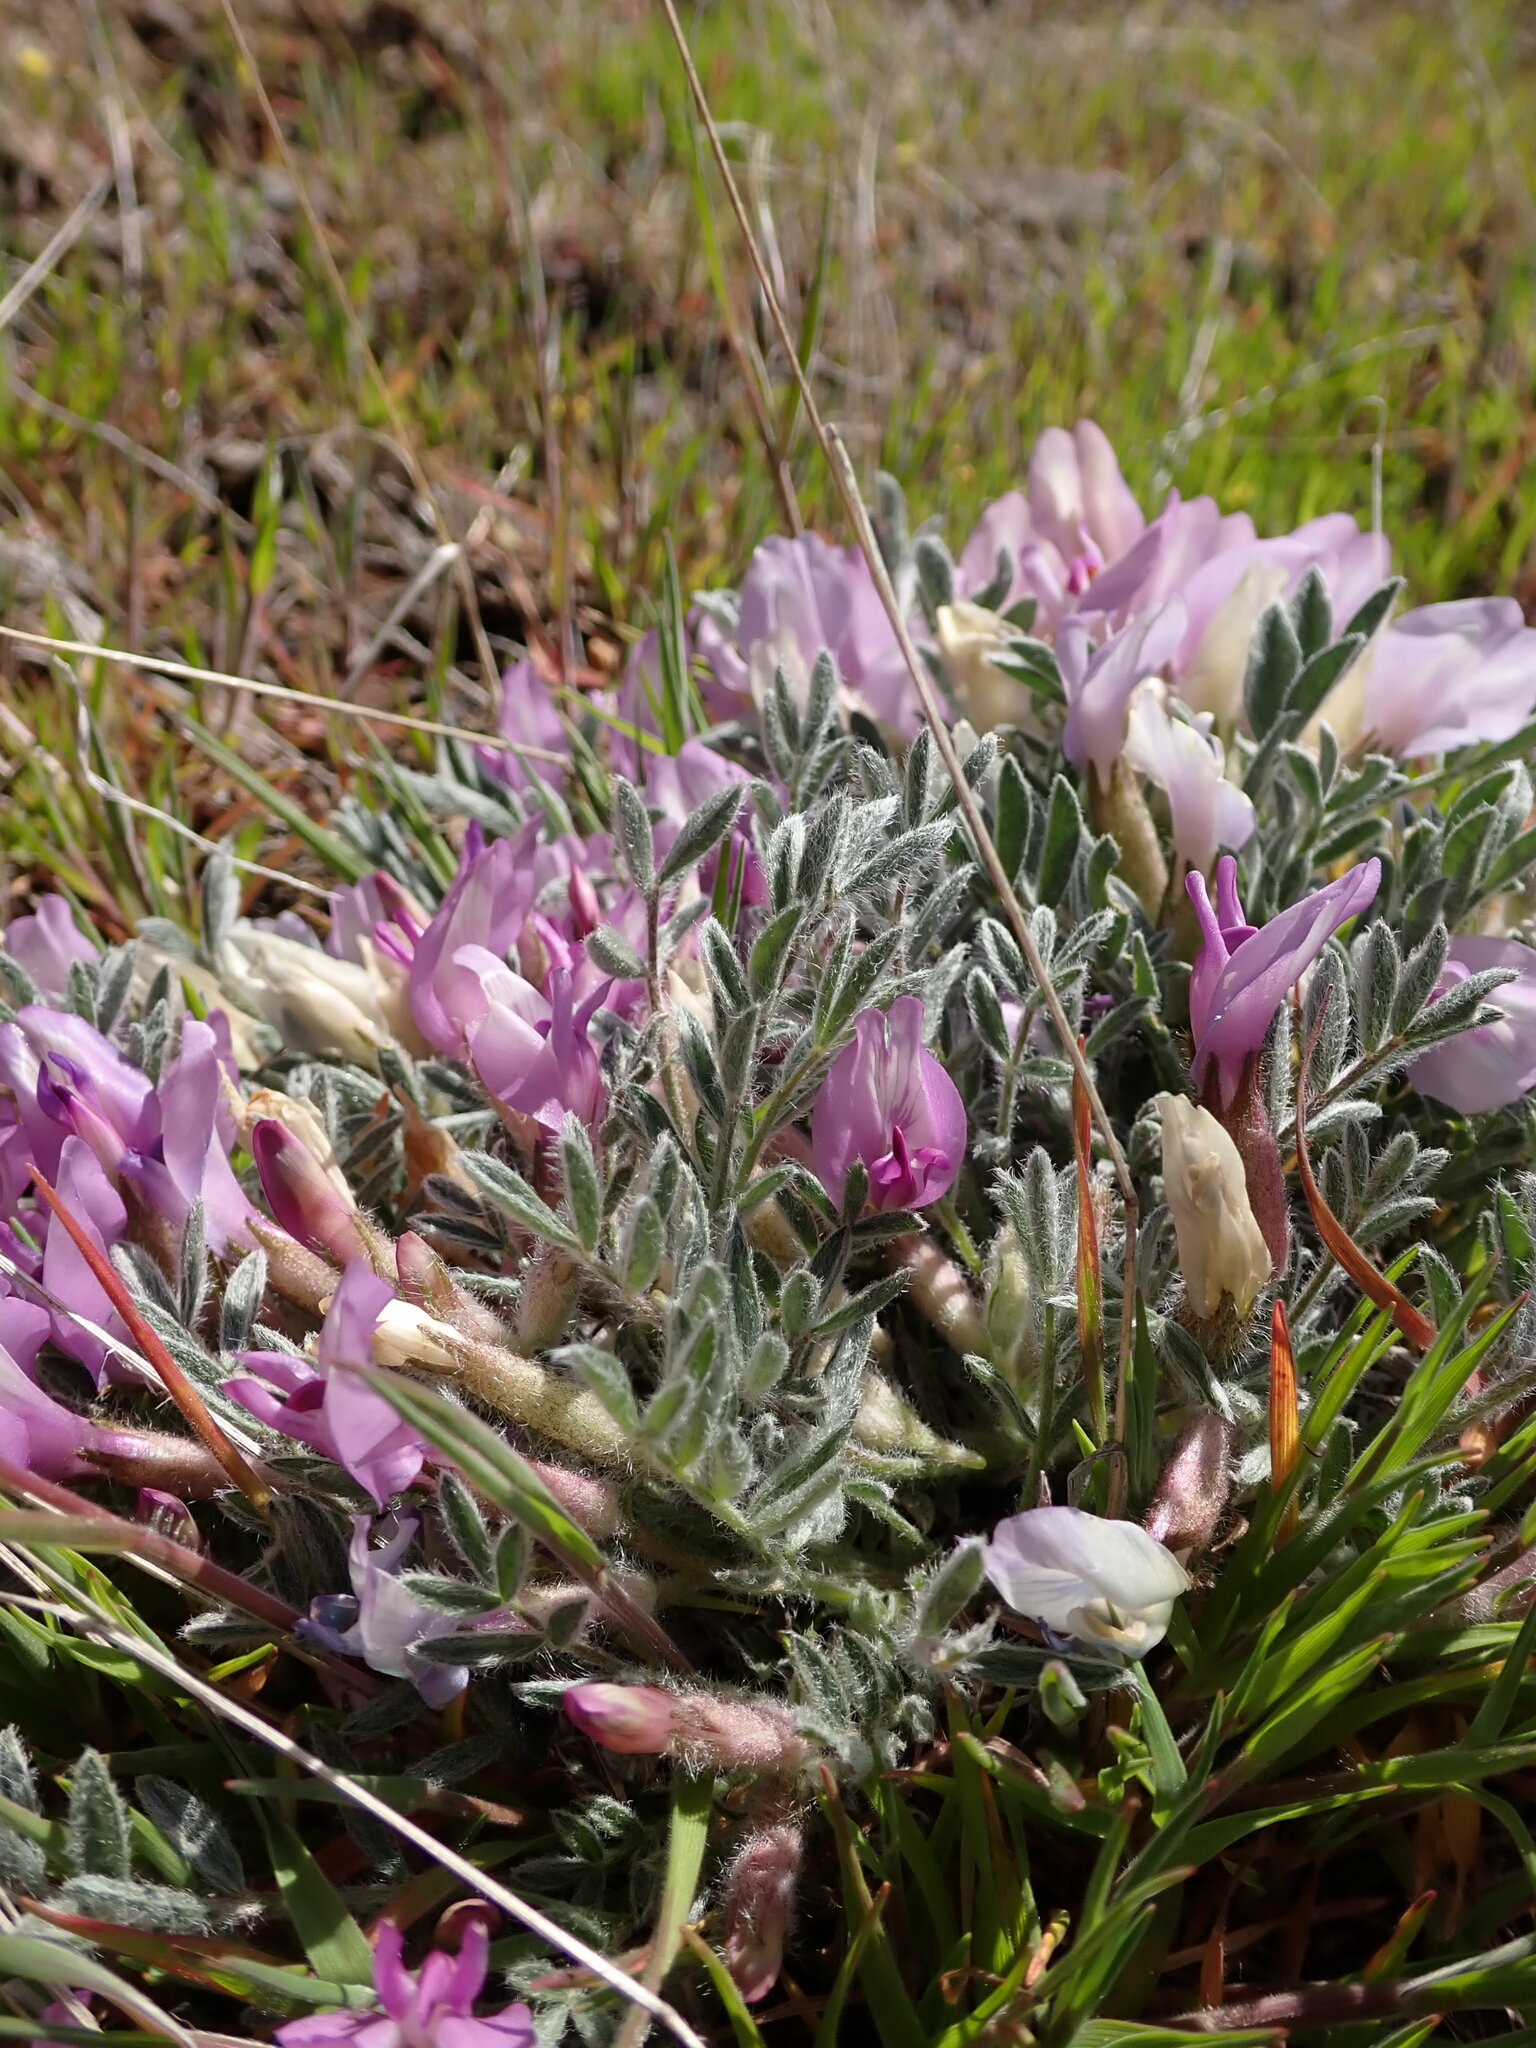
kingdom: Plantae
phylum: Tracheophyta
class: Magnoliopsida
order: Fabales
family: Fabaceae
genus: Astragalus
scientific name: Astragalus purshii
